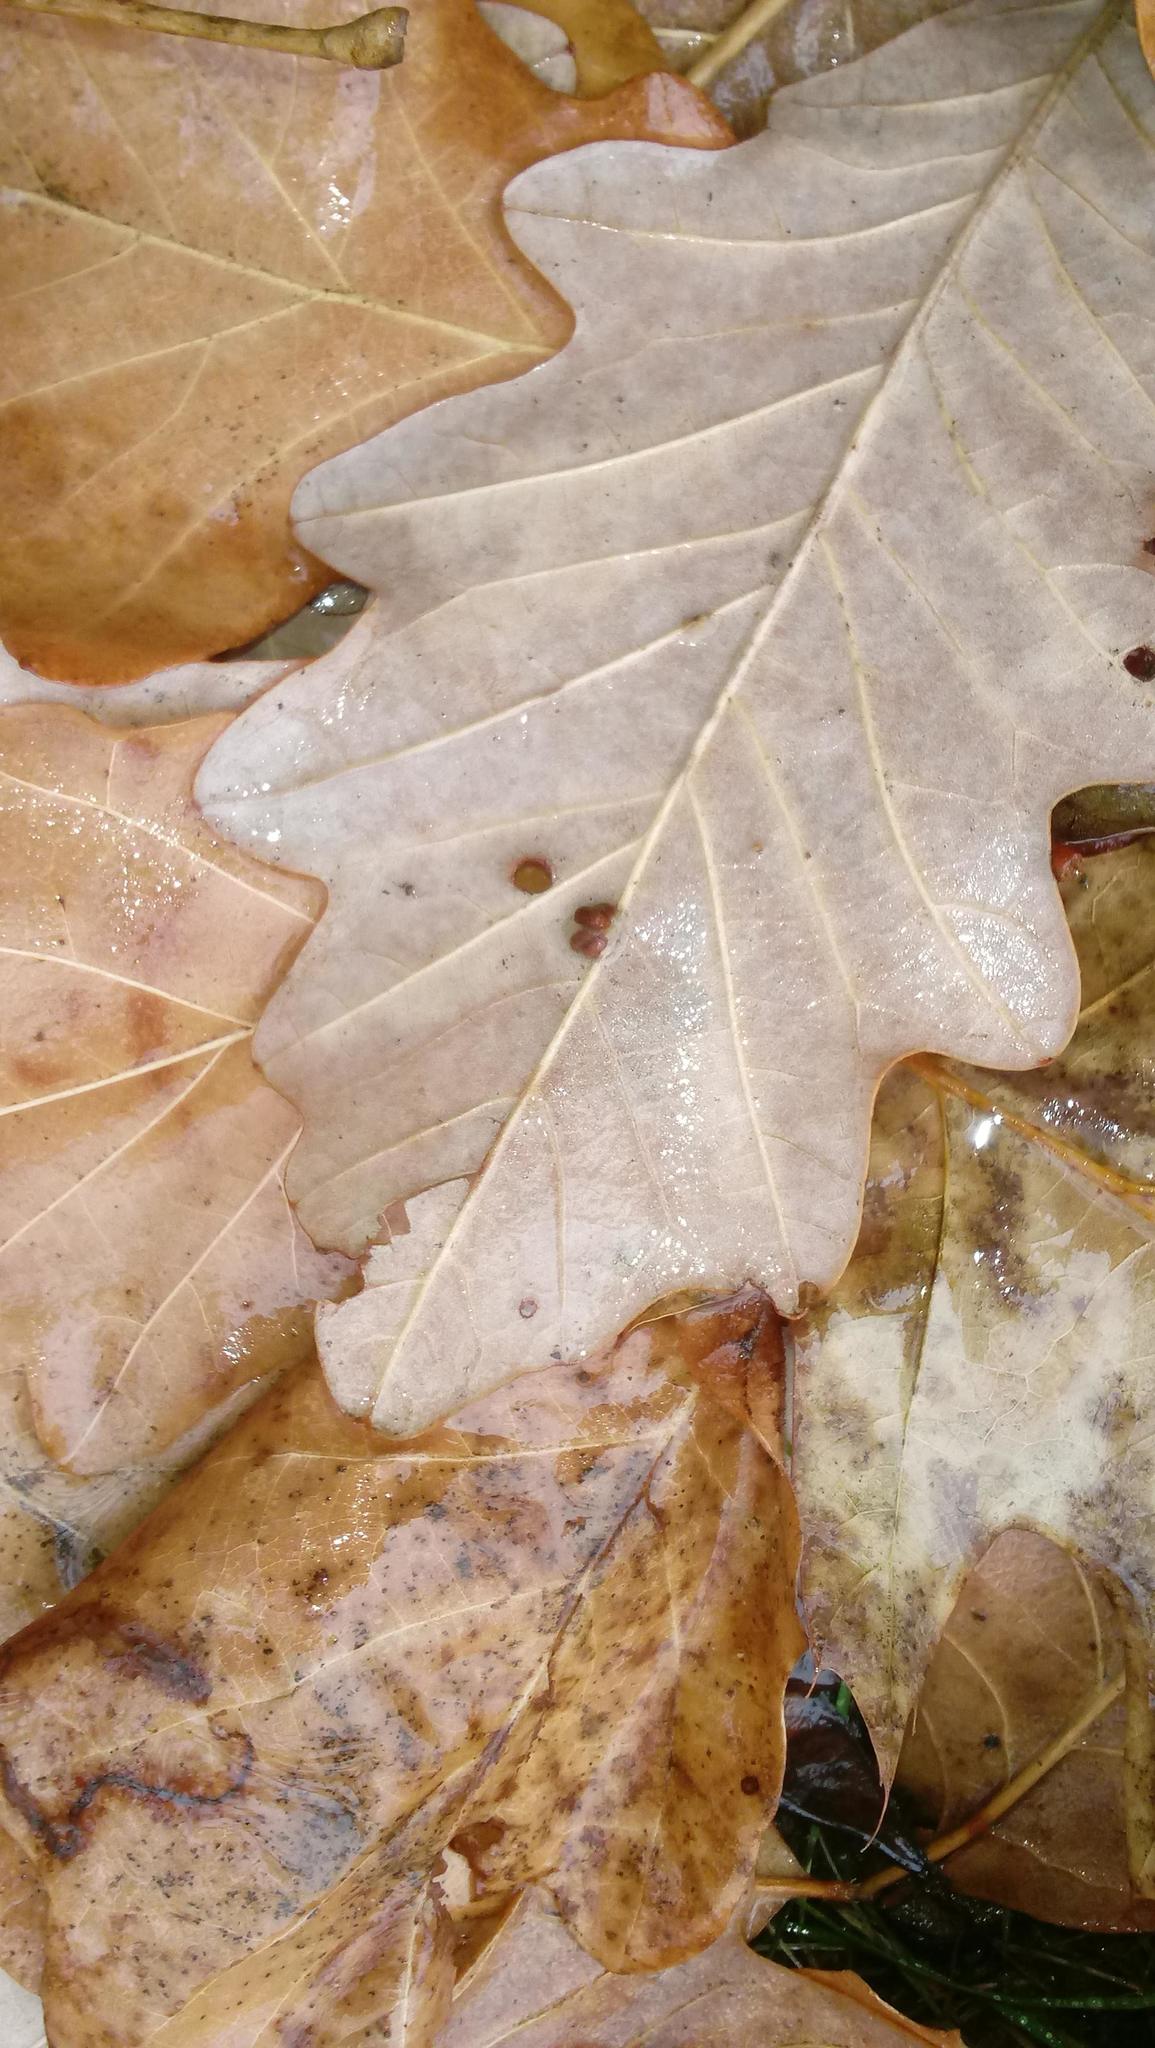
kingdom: Animalia
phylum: Arthropoda
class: Insecta
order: Hymenoptera
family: Cynipidae
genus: Andricus
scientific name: Andricus Druon ignotum
